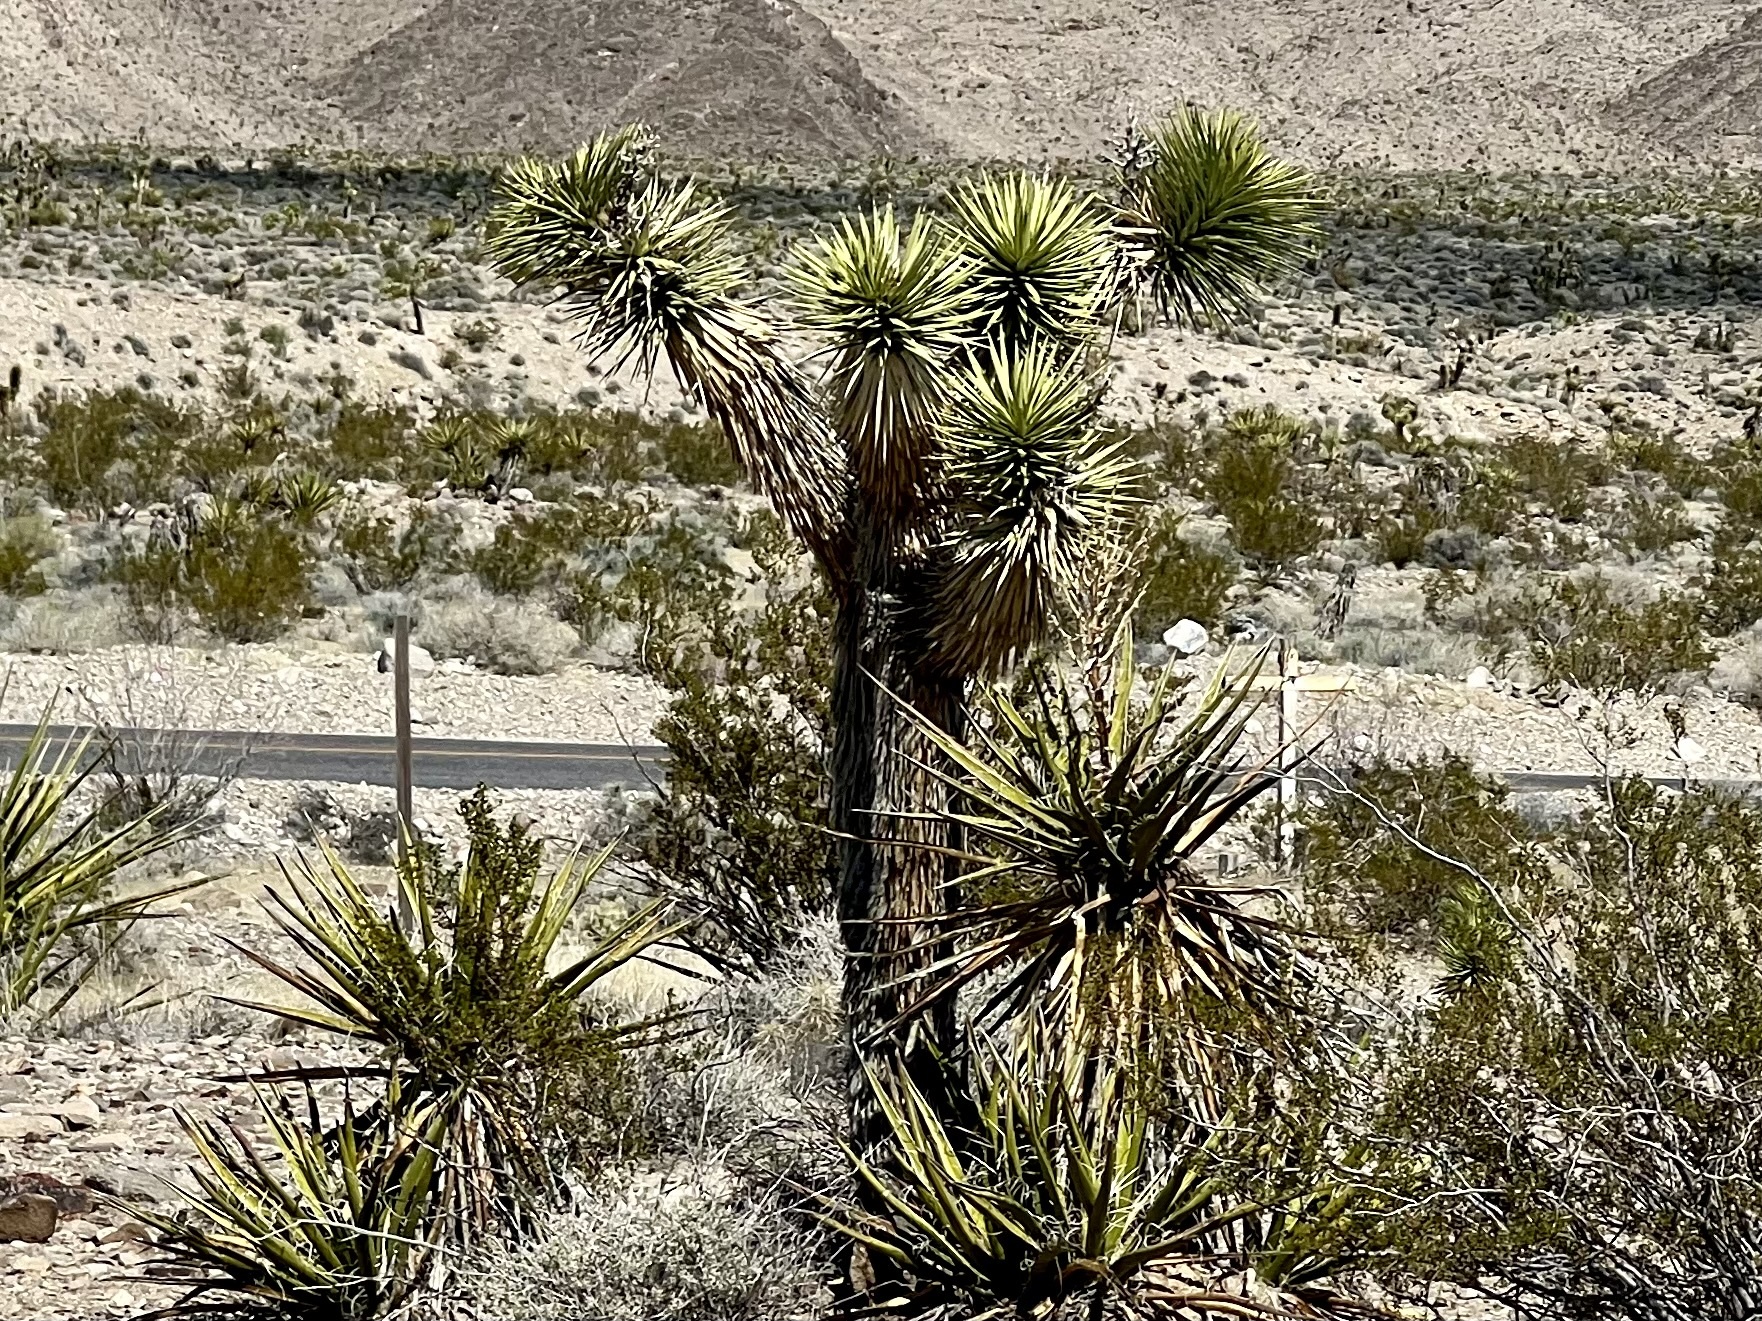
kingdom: Plantae
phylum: Tracheophyta
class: Liliopsida
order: Asparagales
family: Asparagaceae
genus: Yucca
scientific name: Yucca brevifolia
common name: Joshua tree
